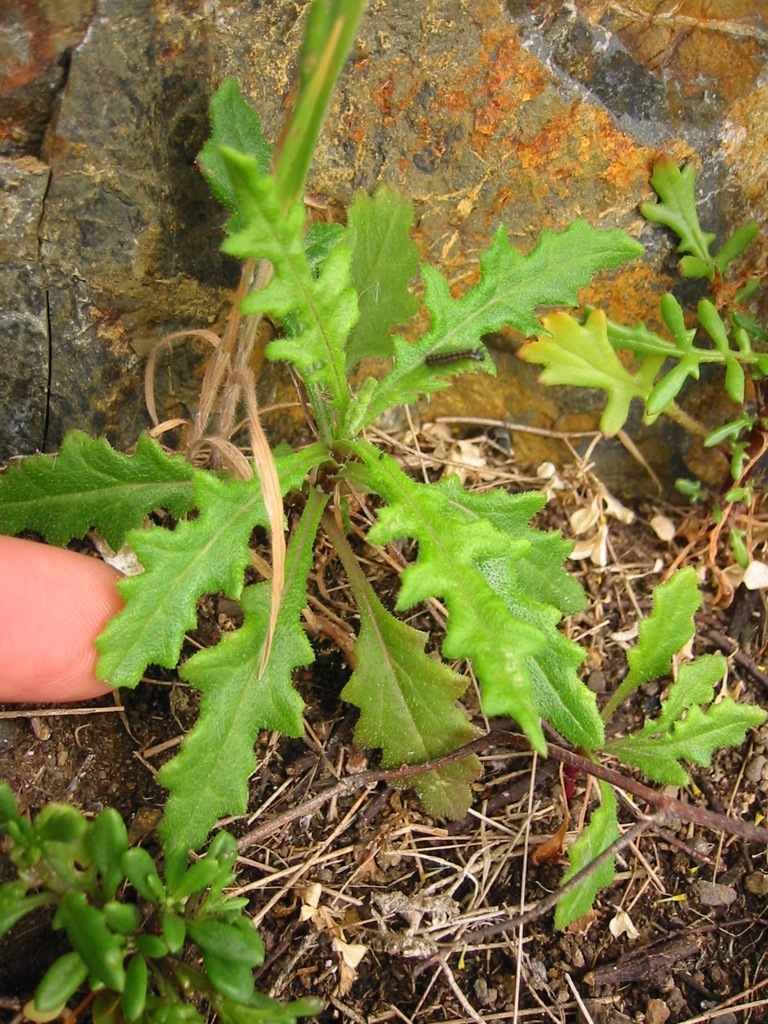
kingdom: Plantae
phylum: Tracheophyta
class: Magnoliopsida
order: Asterales
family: Asteraceae
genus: Senecio
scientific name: Senecio hispidulus
